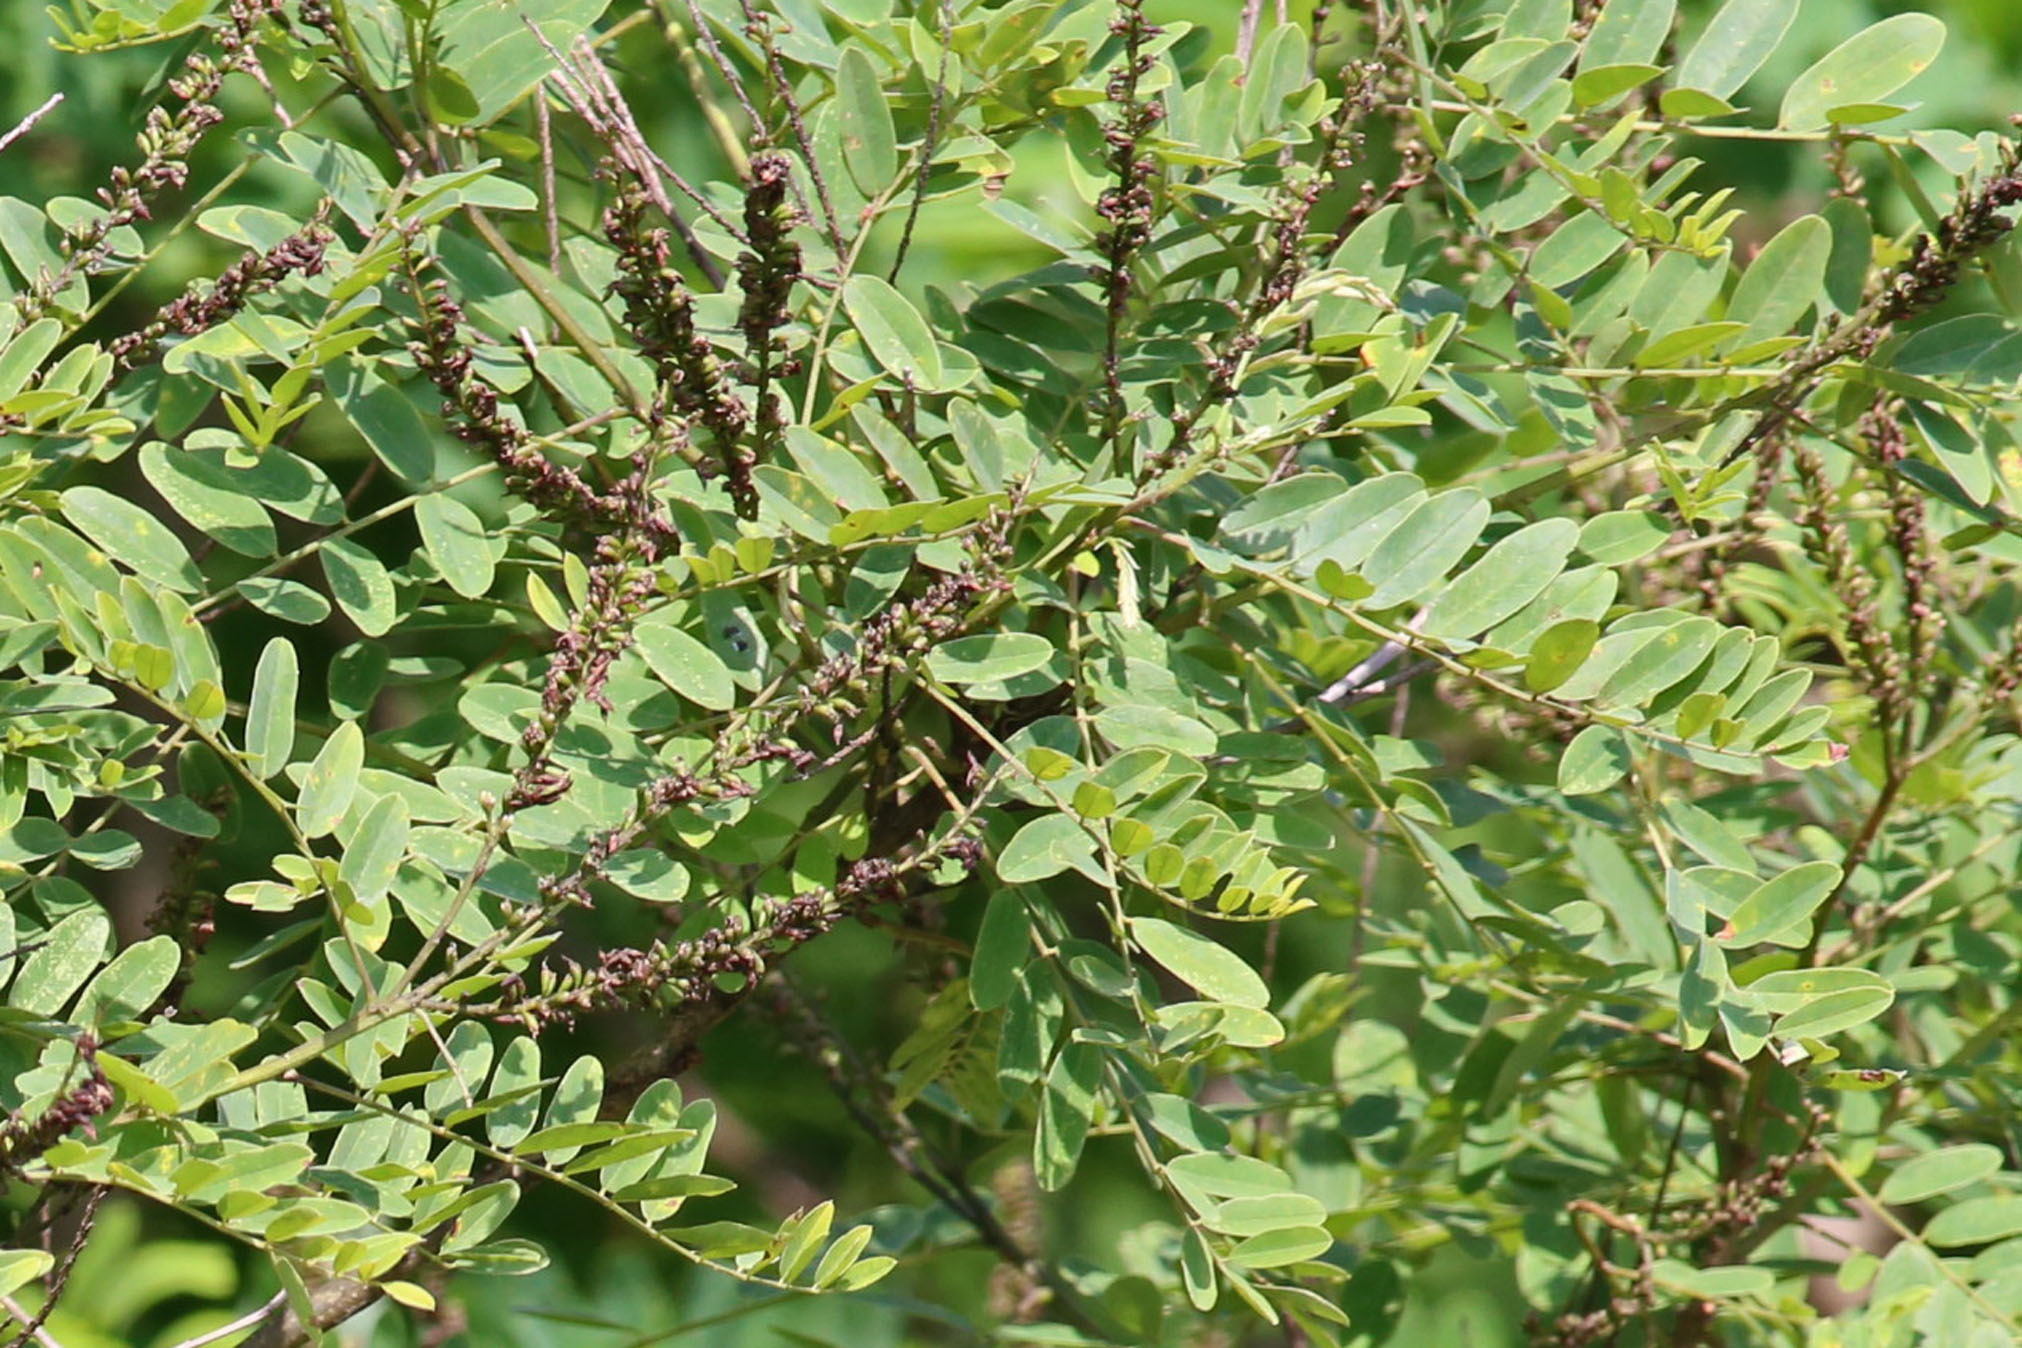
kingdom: Plantae
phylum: Tracheophyta
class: Magnoliopsida
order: Fabales
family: Fabaceae
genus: Amorpha
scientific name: Amorpha fruticosa
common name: False indigo
